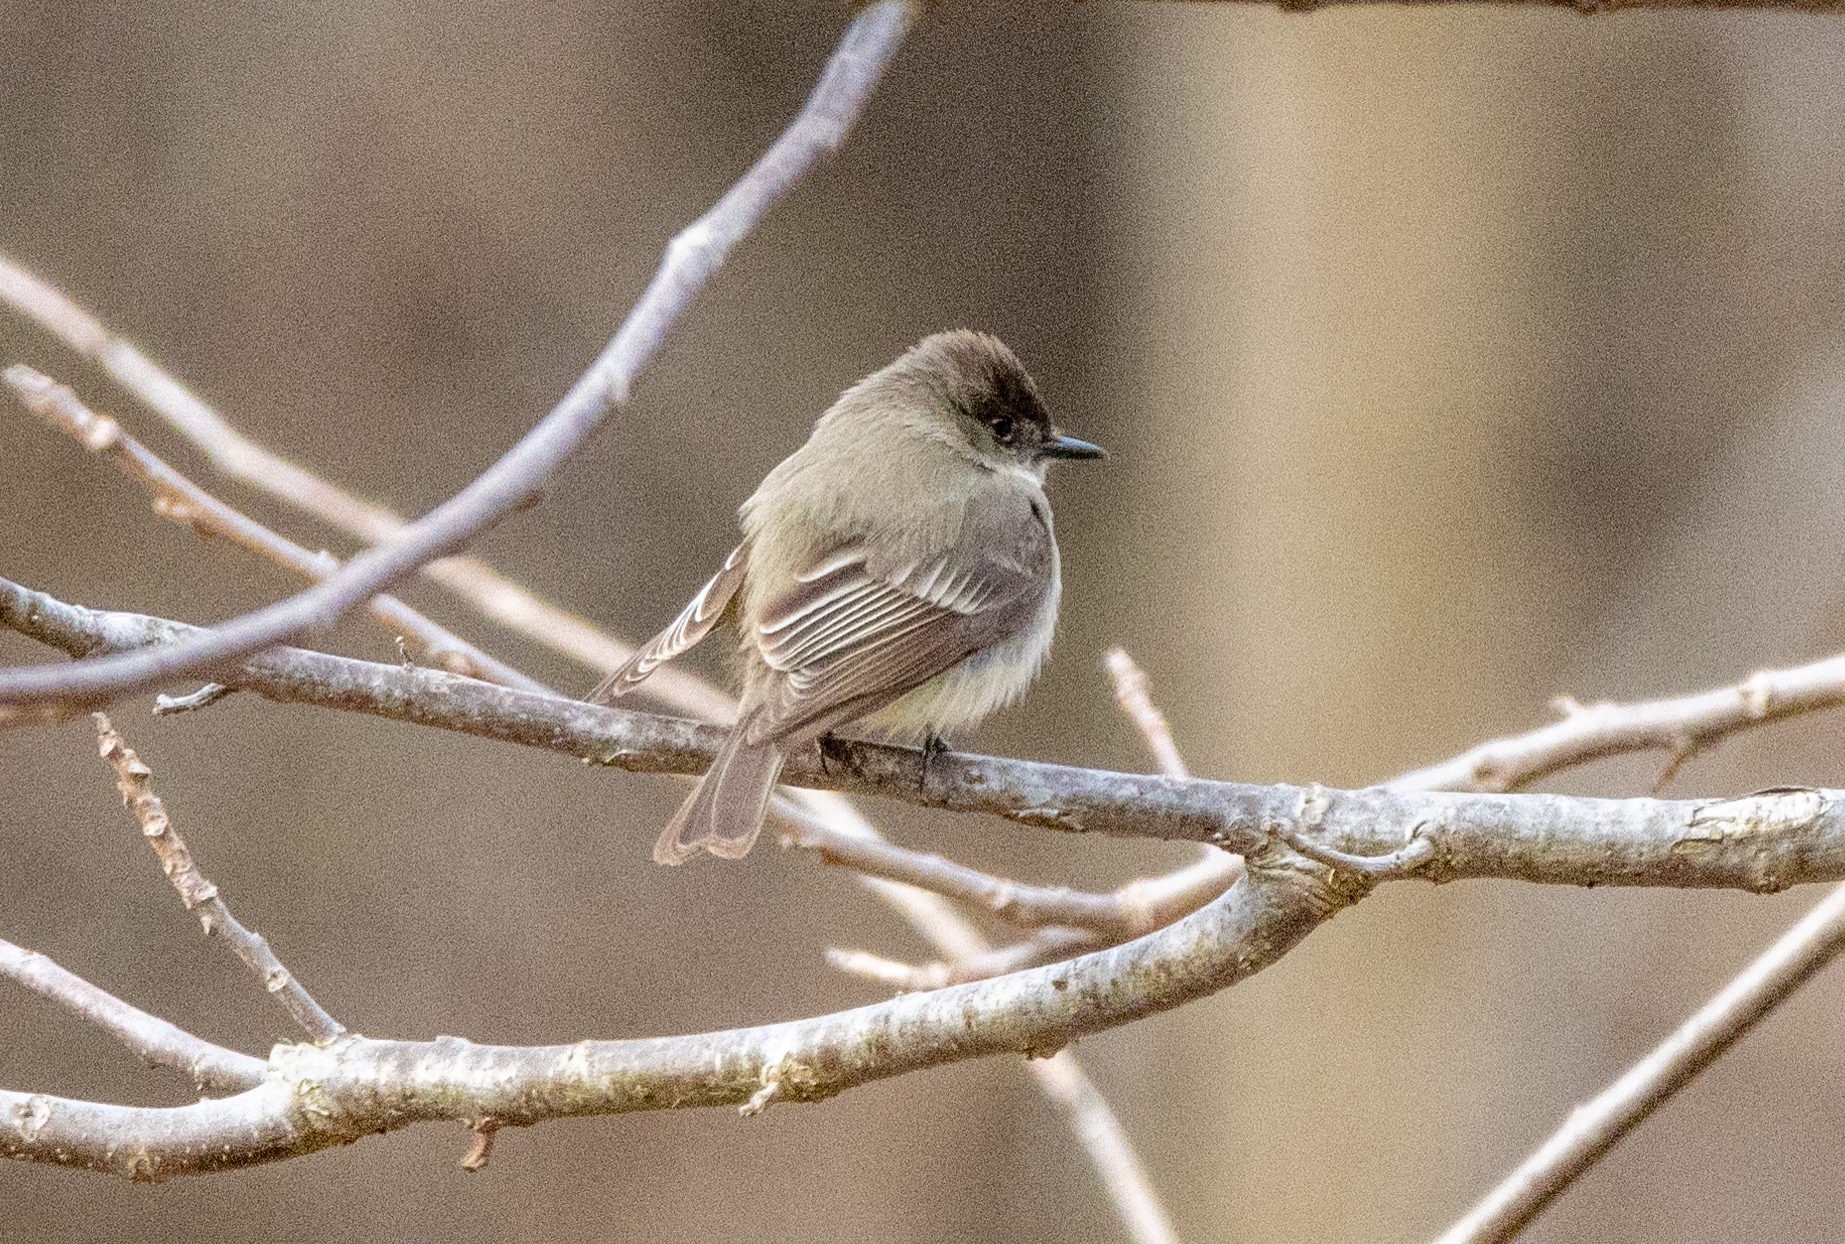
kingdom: Animalia
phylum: Chordata
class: Aves
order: Passeriformes
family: Tyrannidae
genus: Sayornis
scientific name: Sayornis phoebe
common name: Eastern phoebe
